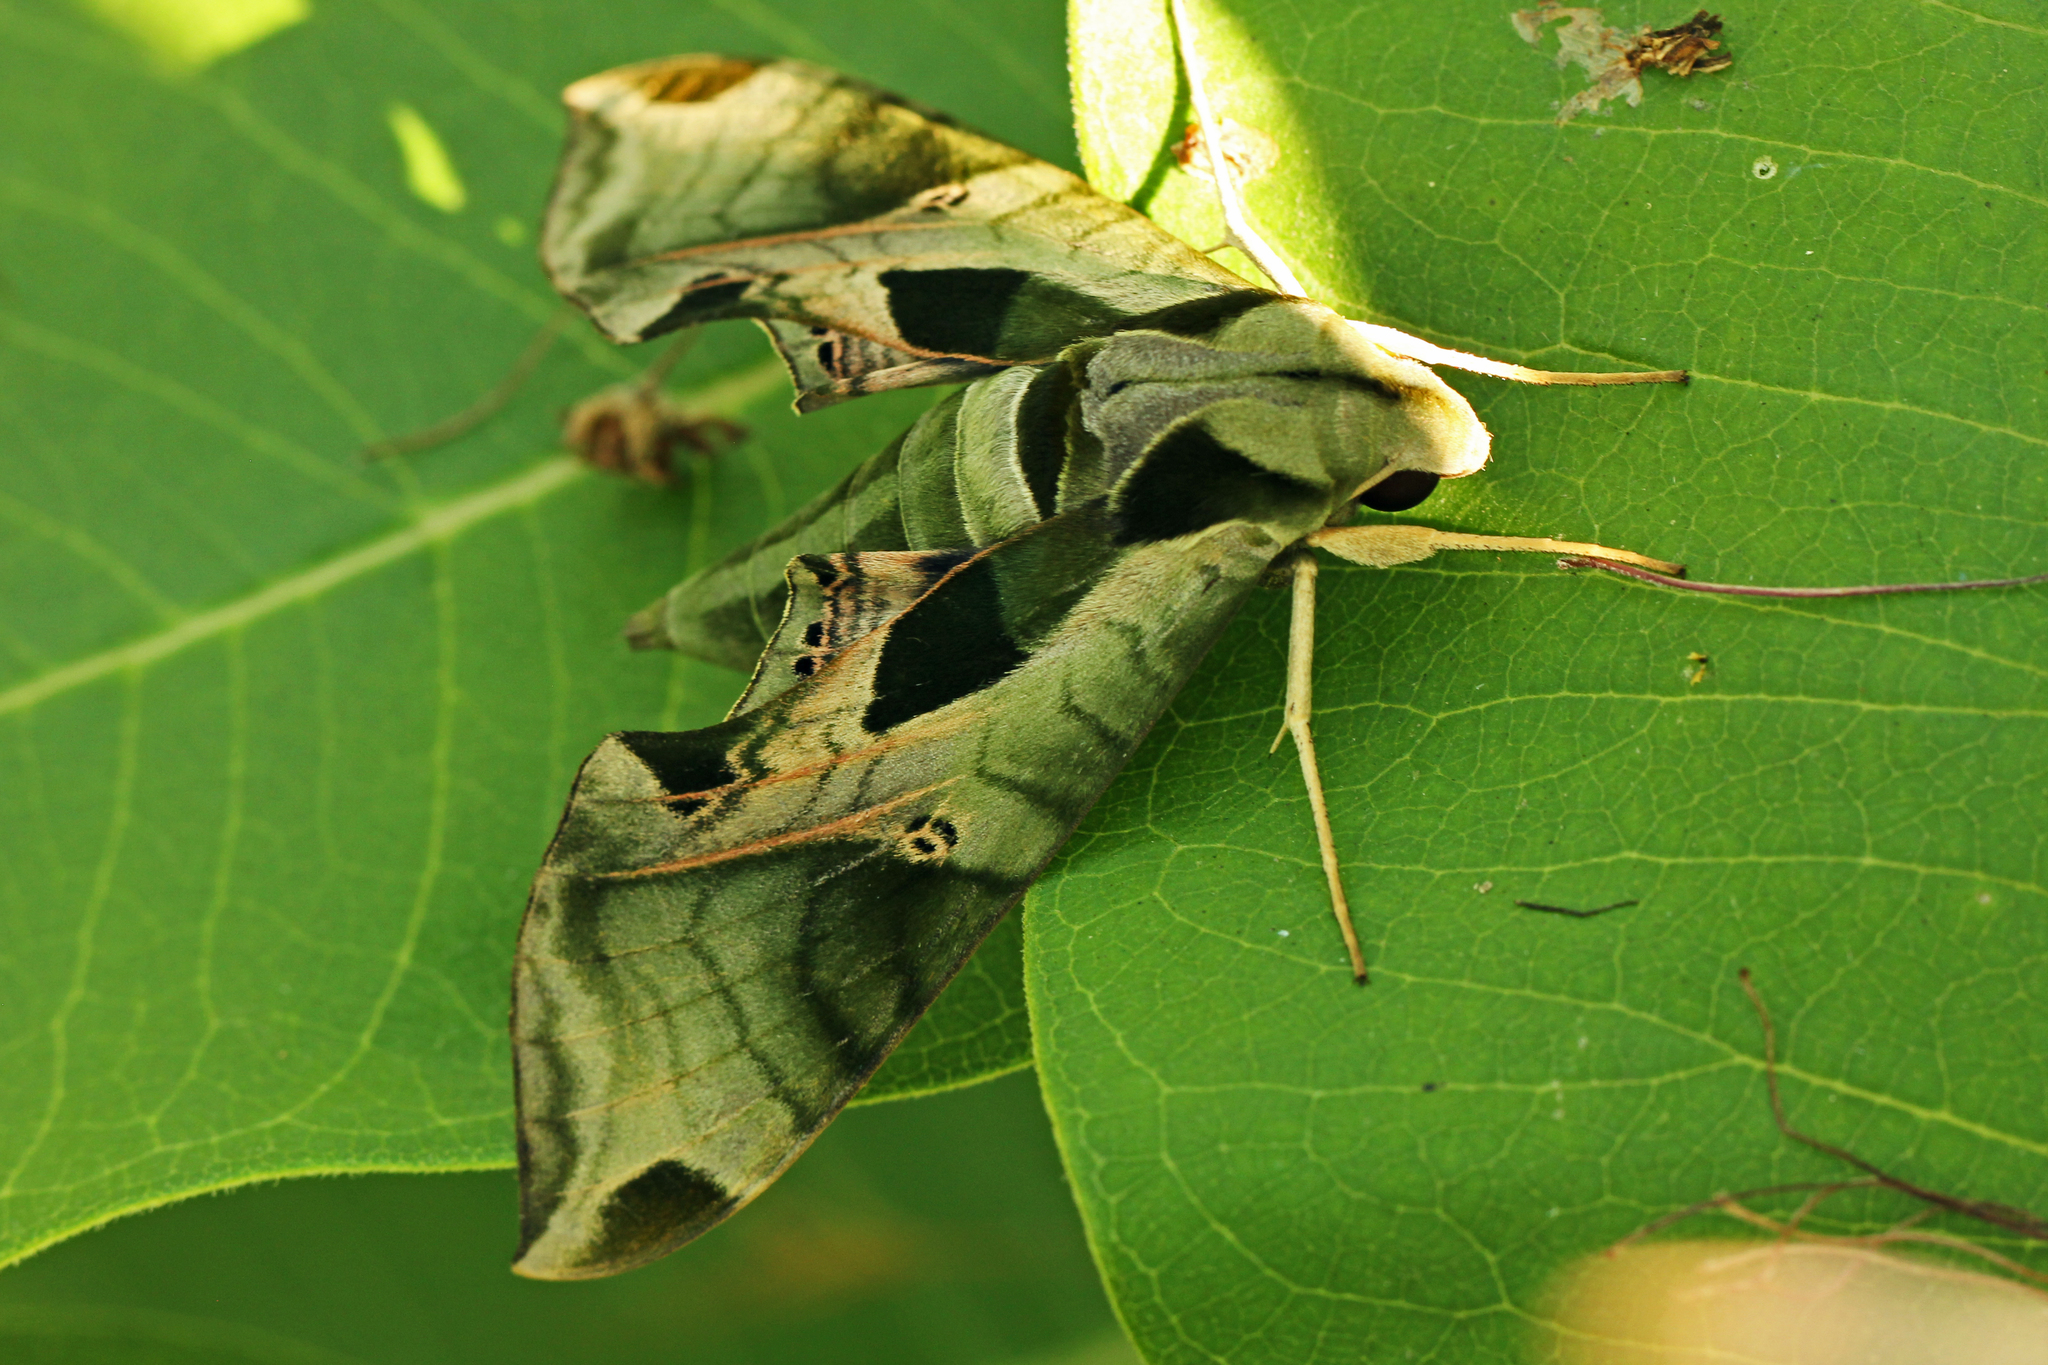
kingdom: Animalia
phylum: Arthropoda
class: Insecta
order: Lepidoptera
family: Sphingidae
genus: Eumorpha
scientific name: Eumorpha pandorus
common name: Pandora sphinx
